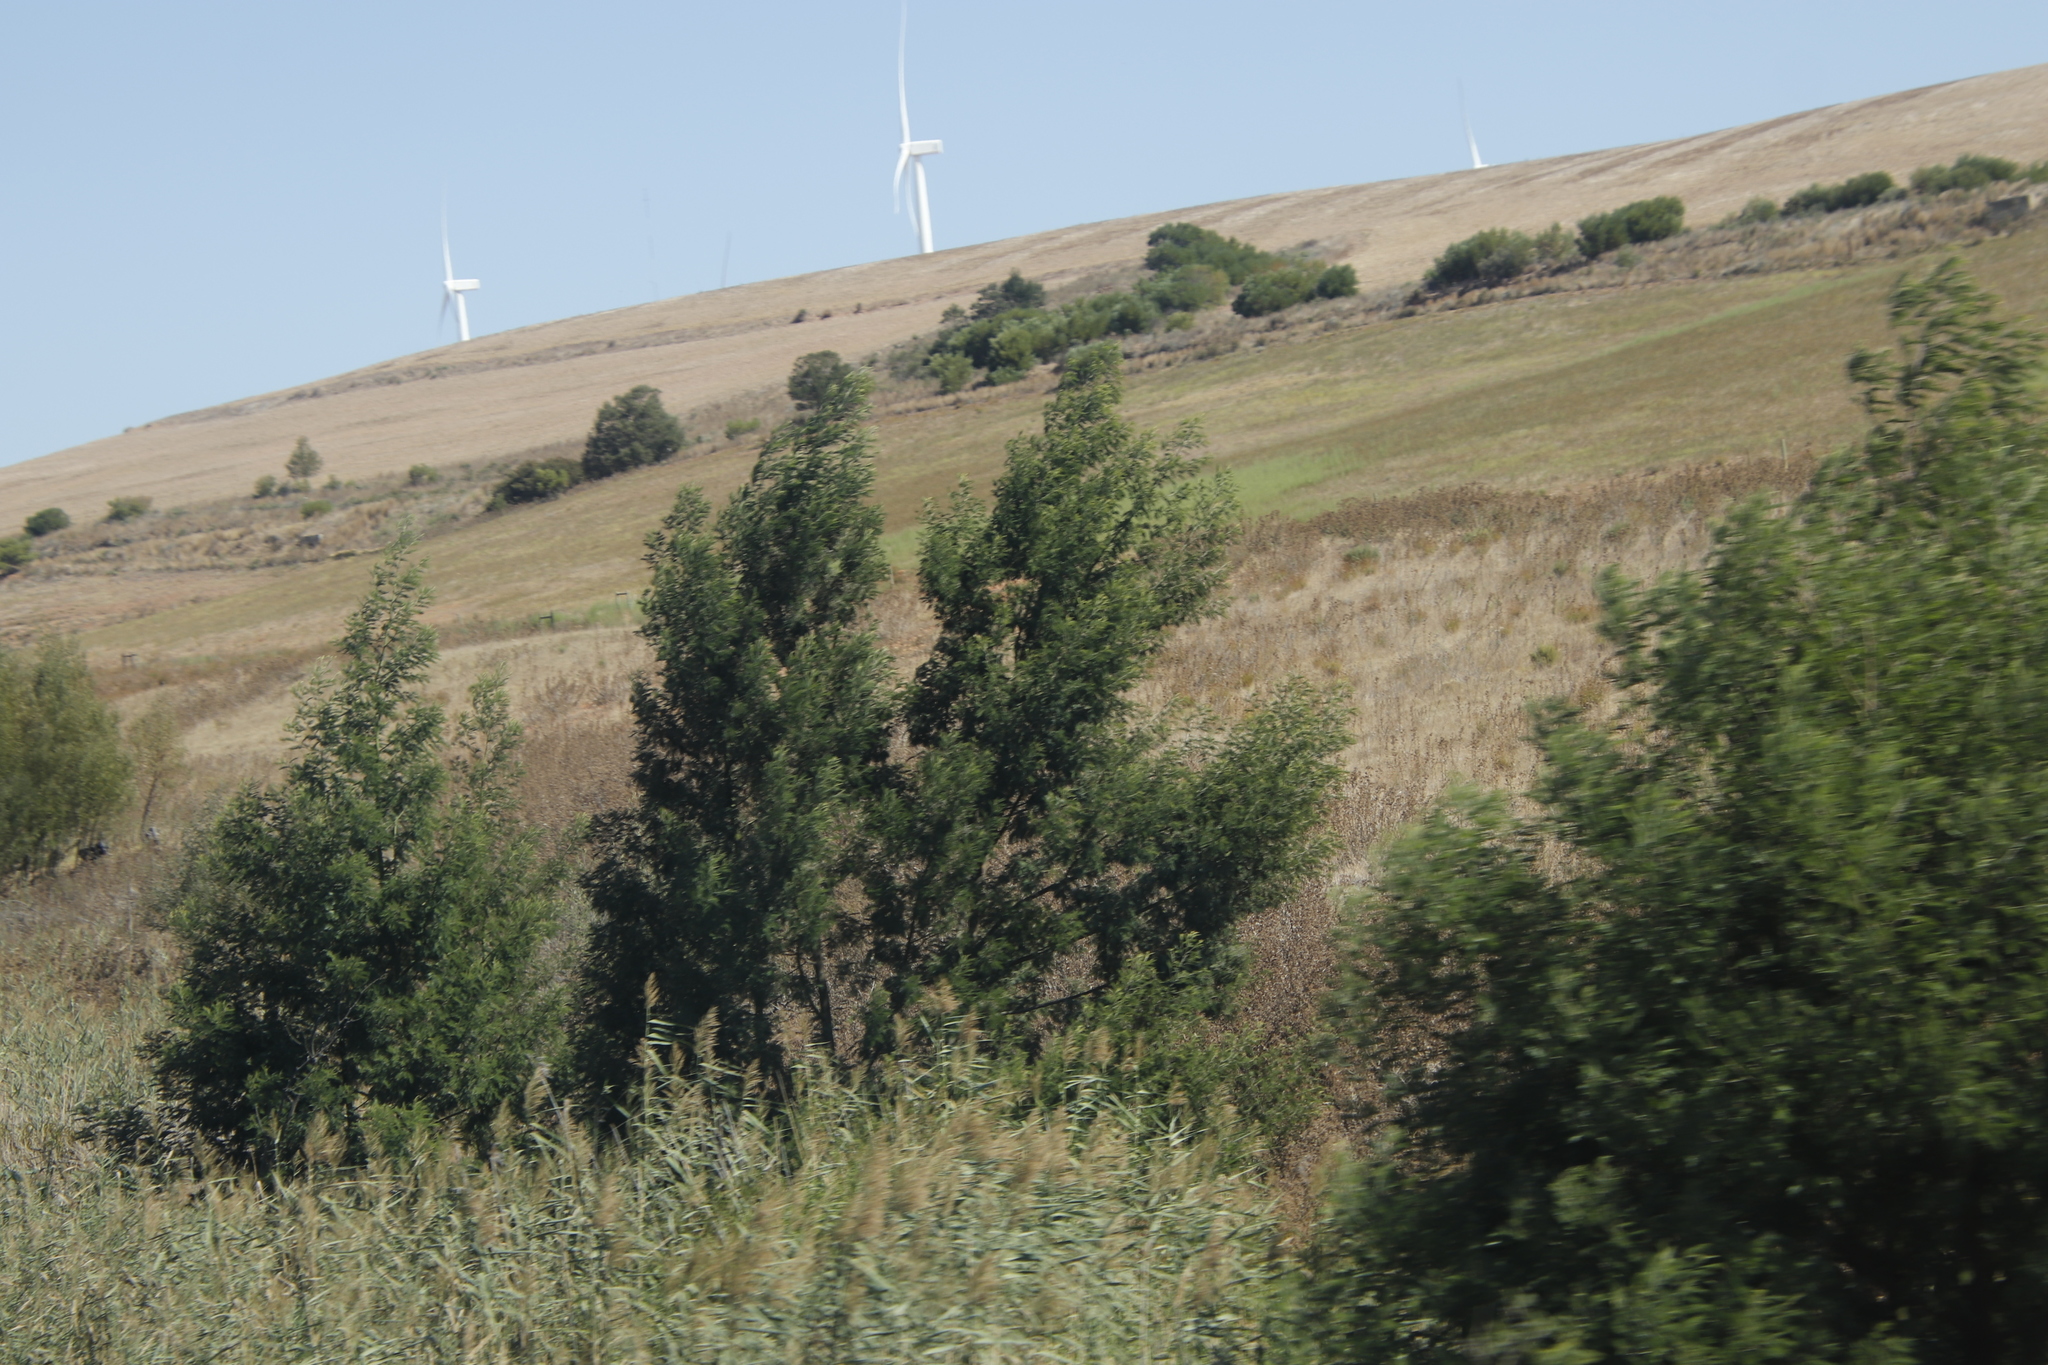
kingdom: Plantae
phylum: Tracheophyta
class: Magnoliopsida
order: Fabales
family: Fabaceae
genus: Acacia
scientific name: Acacia mearnsii
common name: Black wattle
